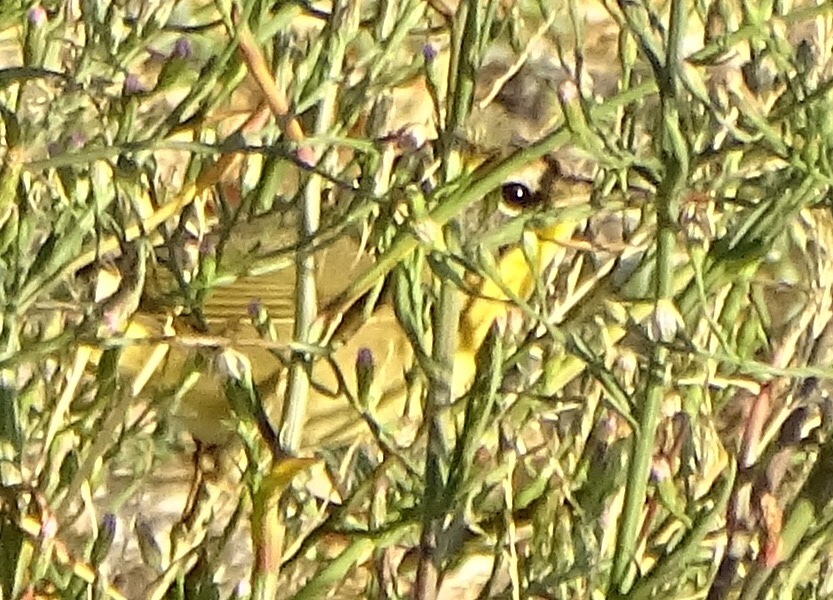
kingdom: Animalia
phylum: Chordata
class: Aves
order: Passeriformes
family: Parulidae
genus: Geothlypis
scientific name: Geothlypis trichas
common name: Common yellowthroat
